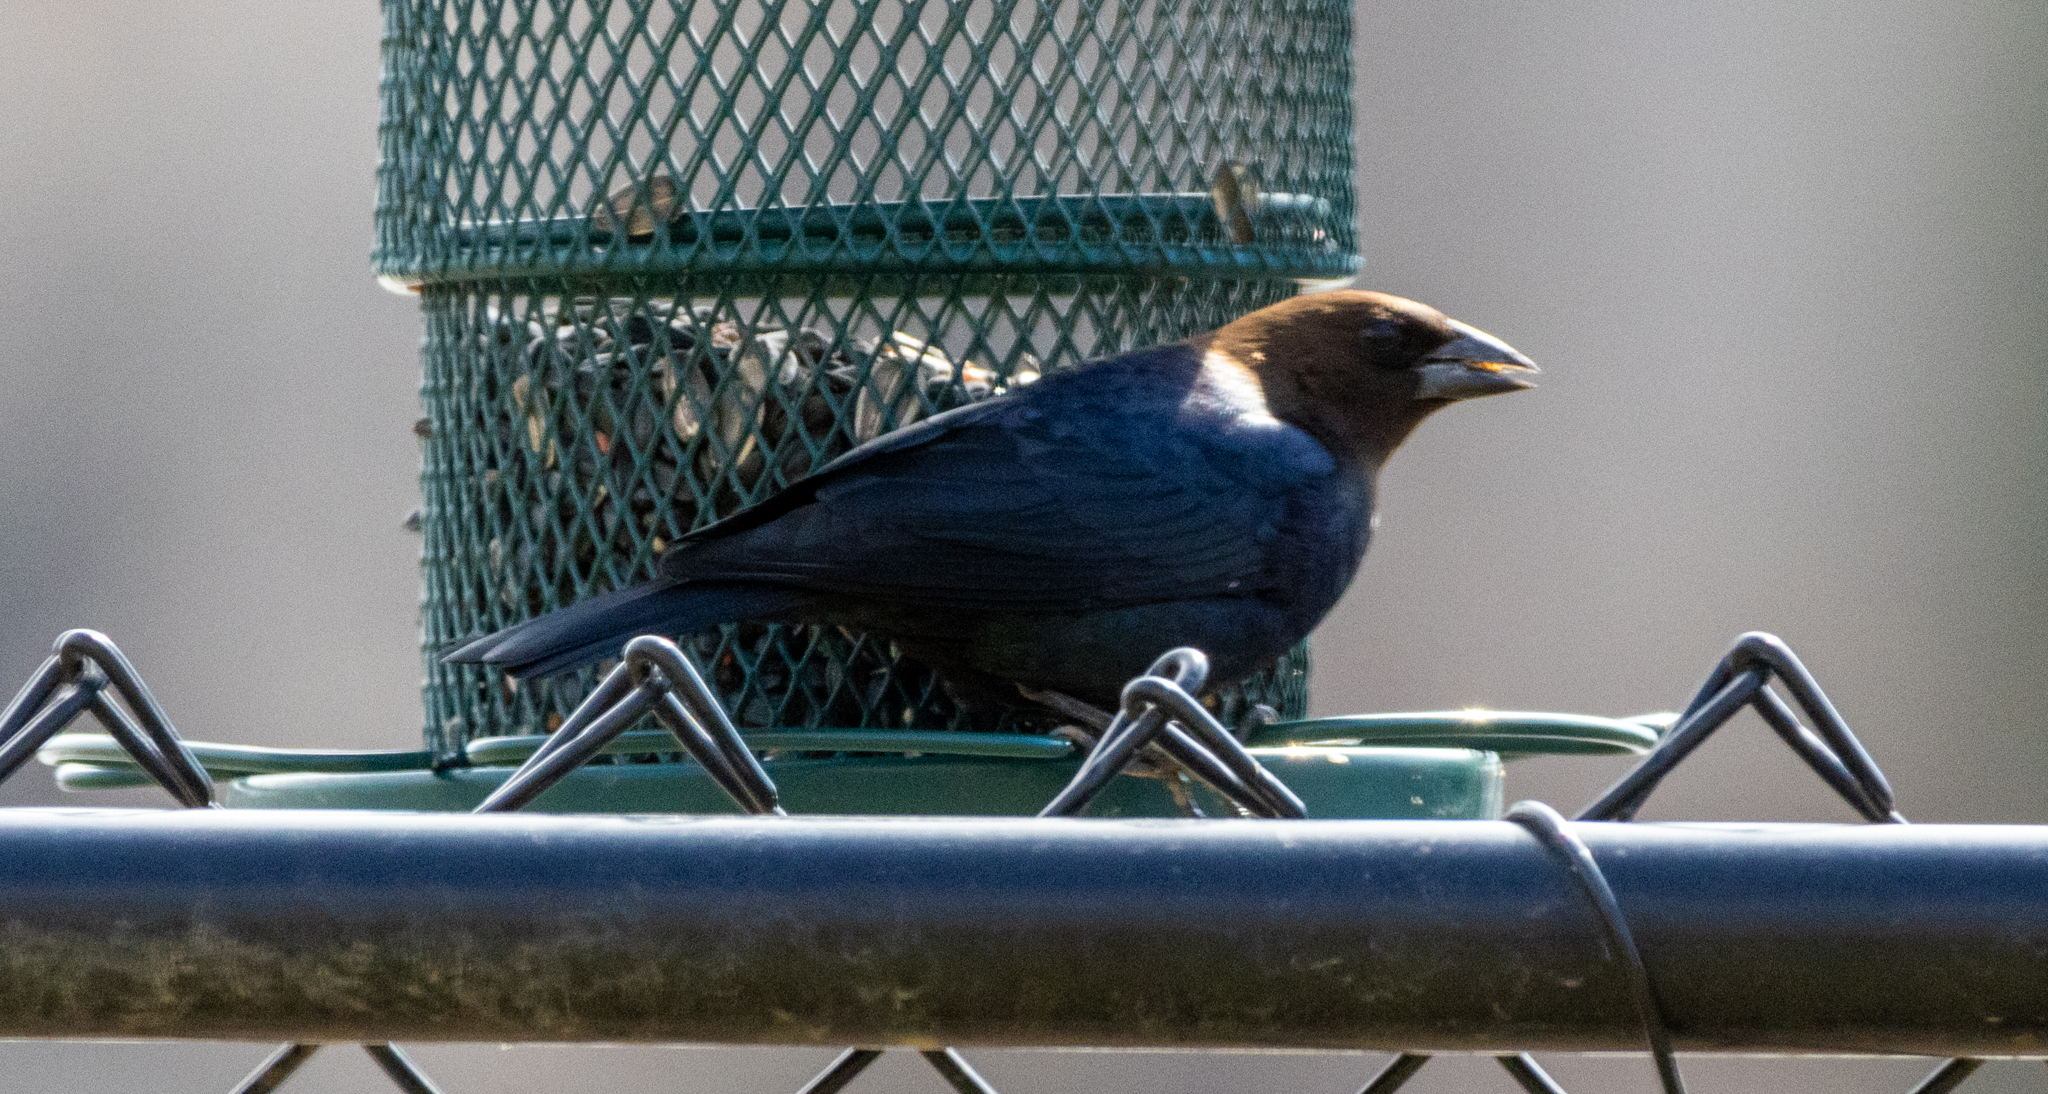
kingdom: Animalia
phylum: Chordata
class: Aves
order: Passeriformes
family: Icteridae
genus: Molothrus
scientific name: Molothrus ater
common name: Brown-headed cowbird
